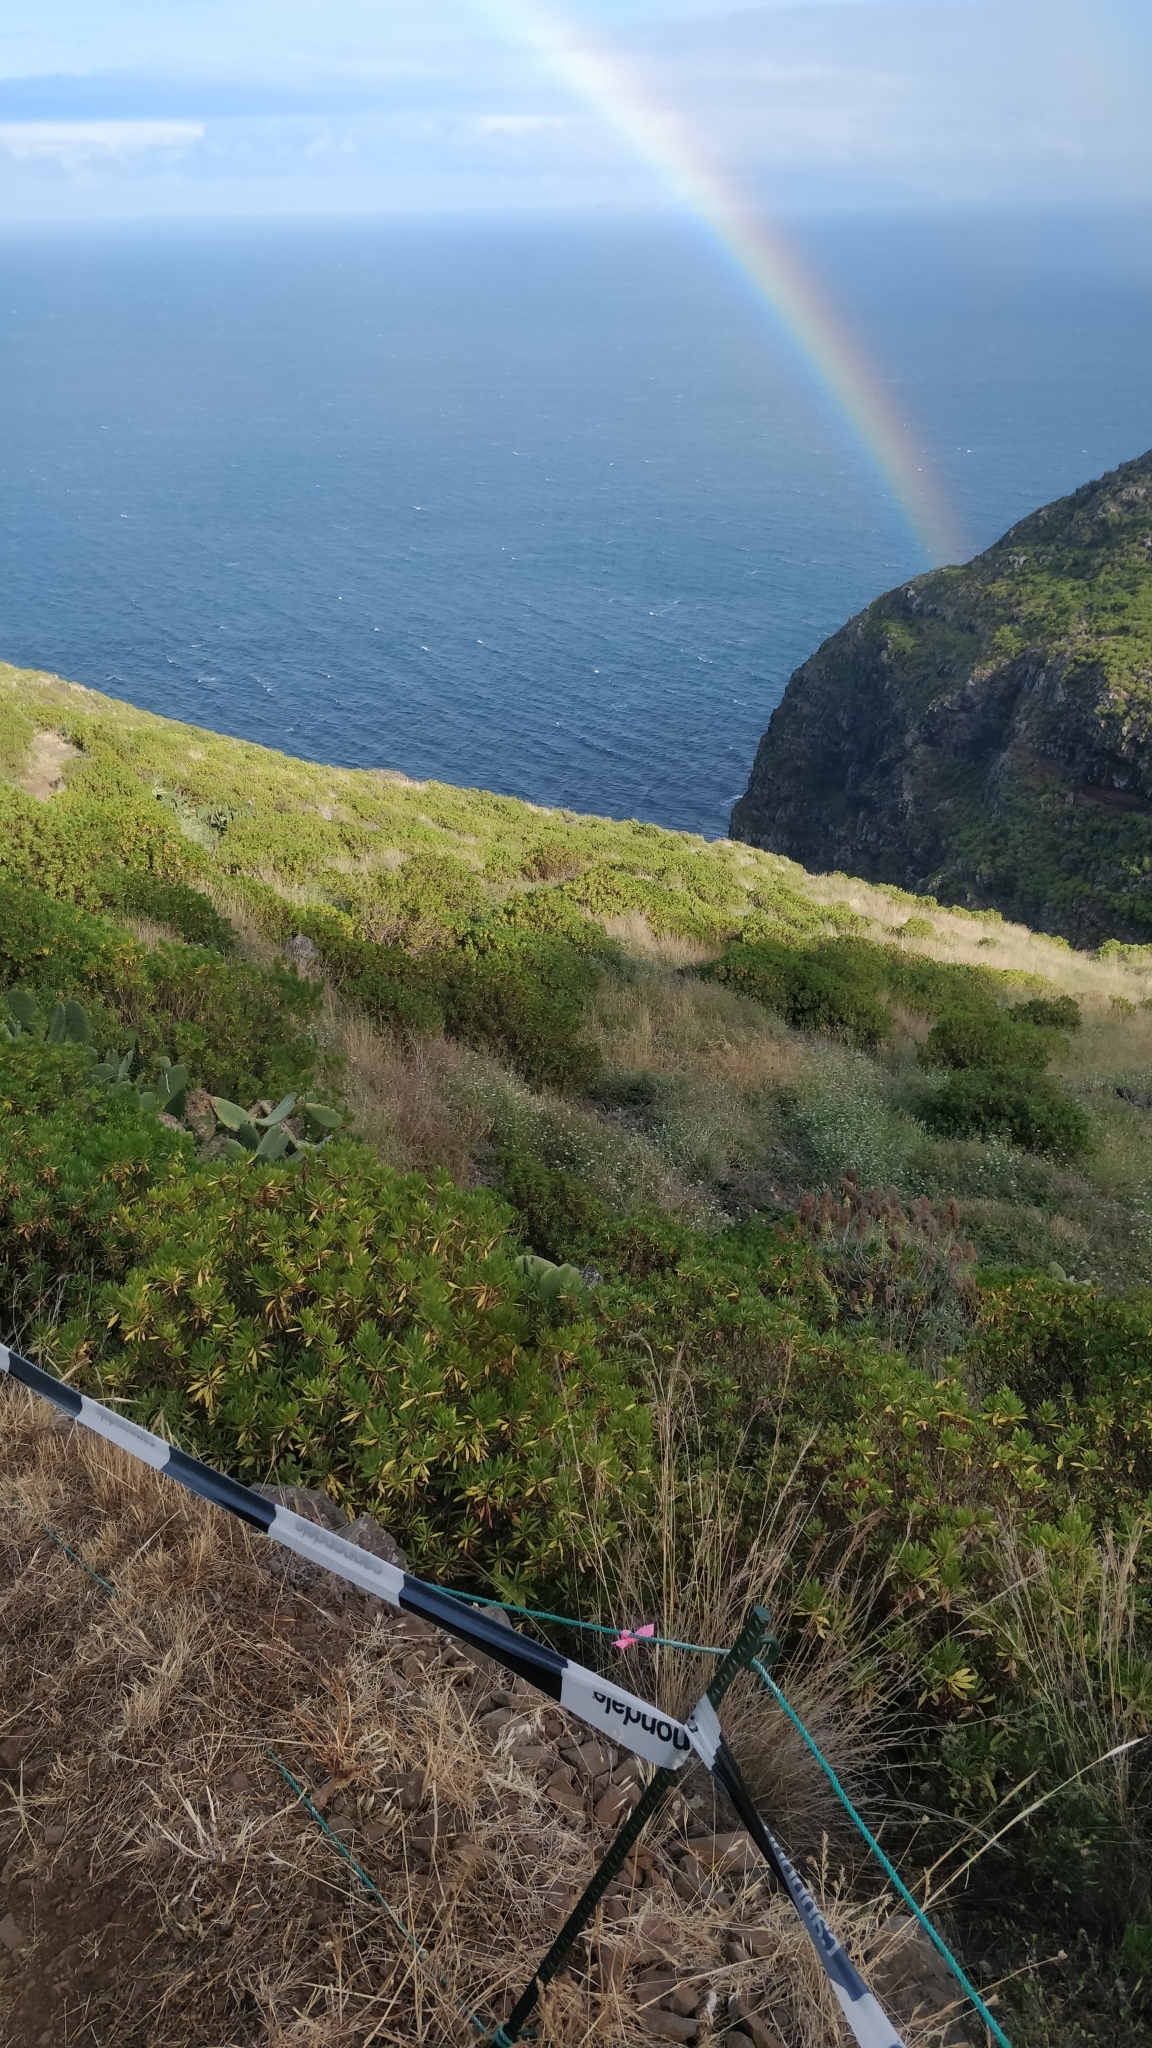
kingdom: Plantae
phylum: Tracheophyta
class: Magnoliopsida
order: Lamiales
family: Plantaginaceae
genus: Globularia
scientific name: Globularia salicina
